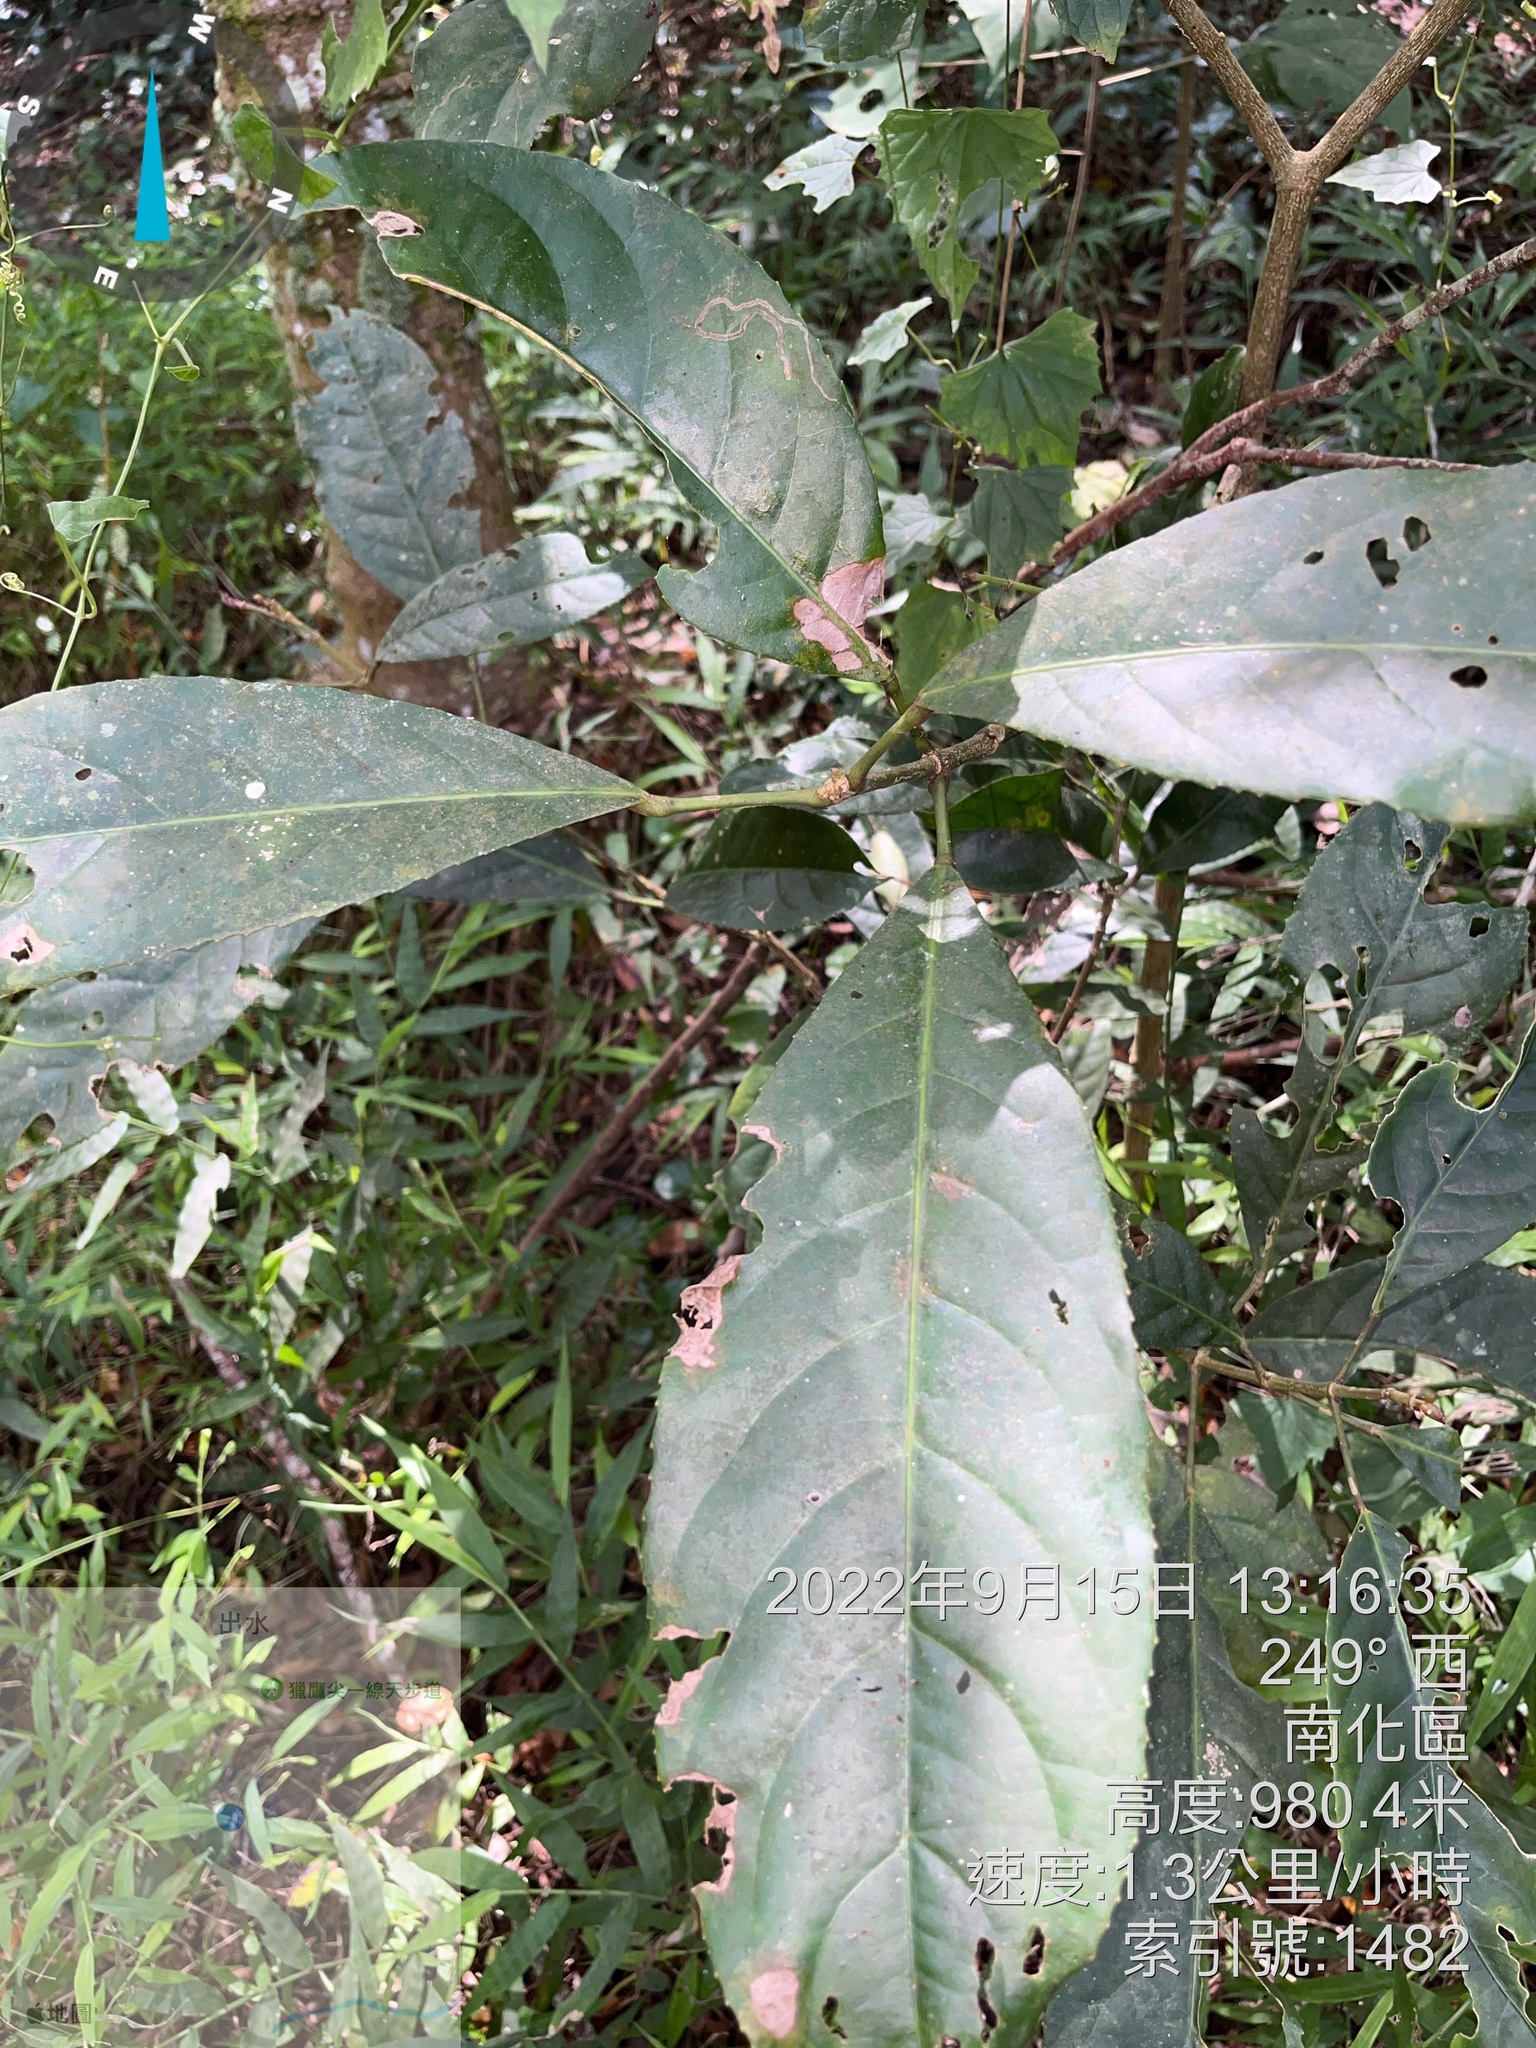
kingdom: Plantae
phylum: Tracheophyta
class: Magnoliopsida
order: Crossosomatales
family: Staphyleaceae
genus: Turpinia
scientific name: Turpinia formosana
